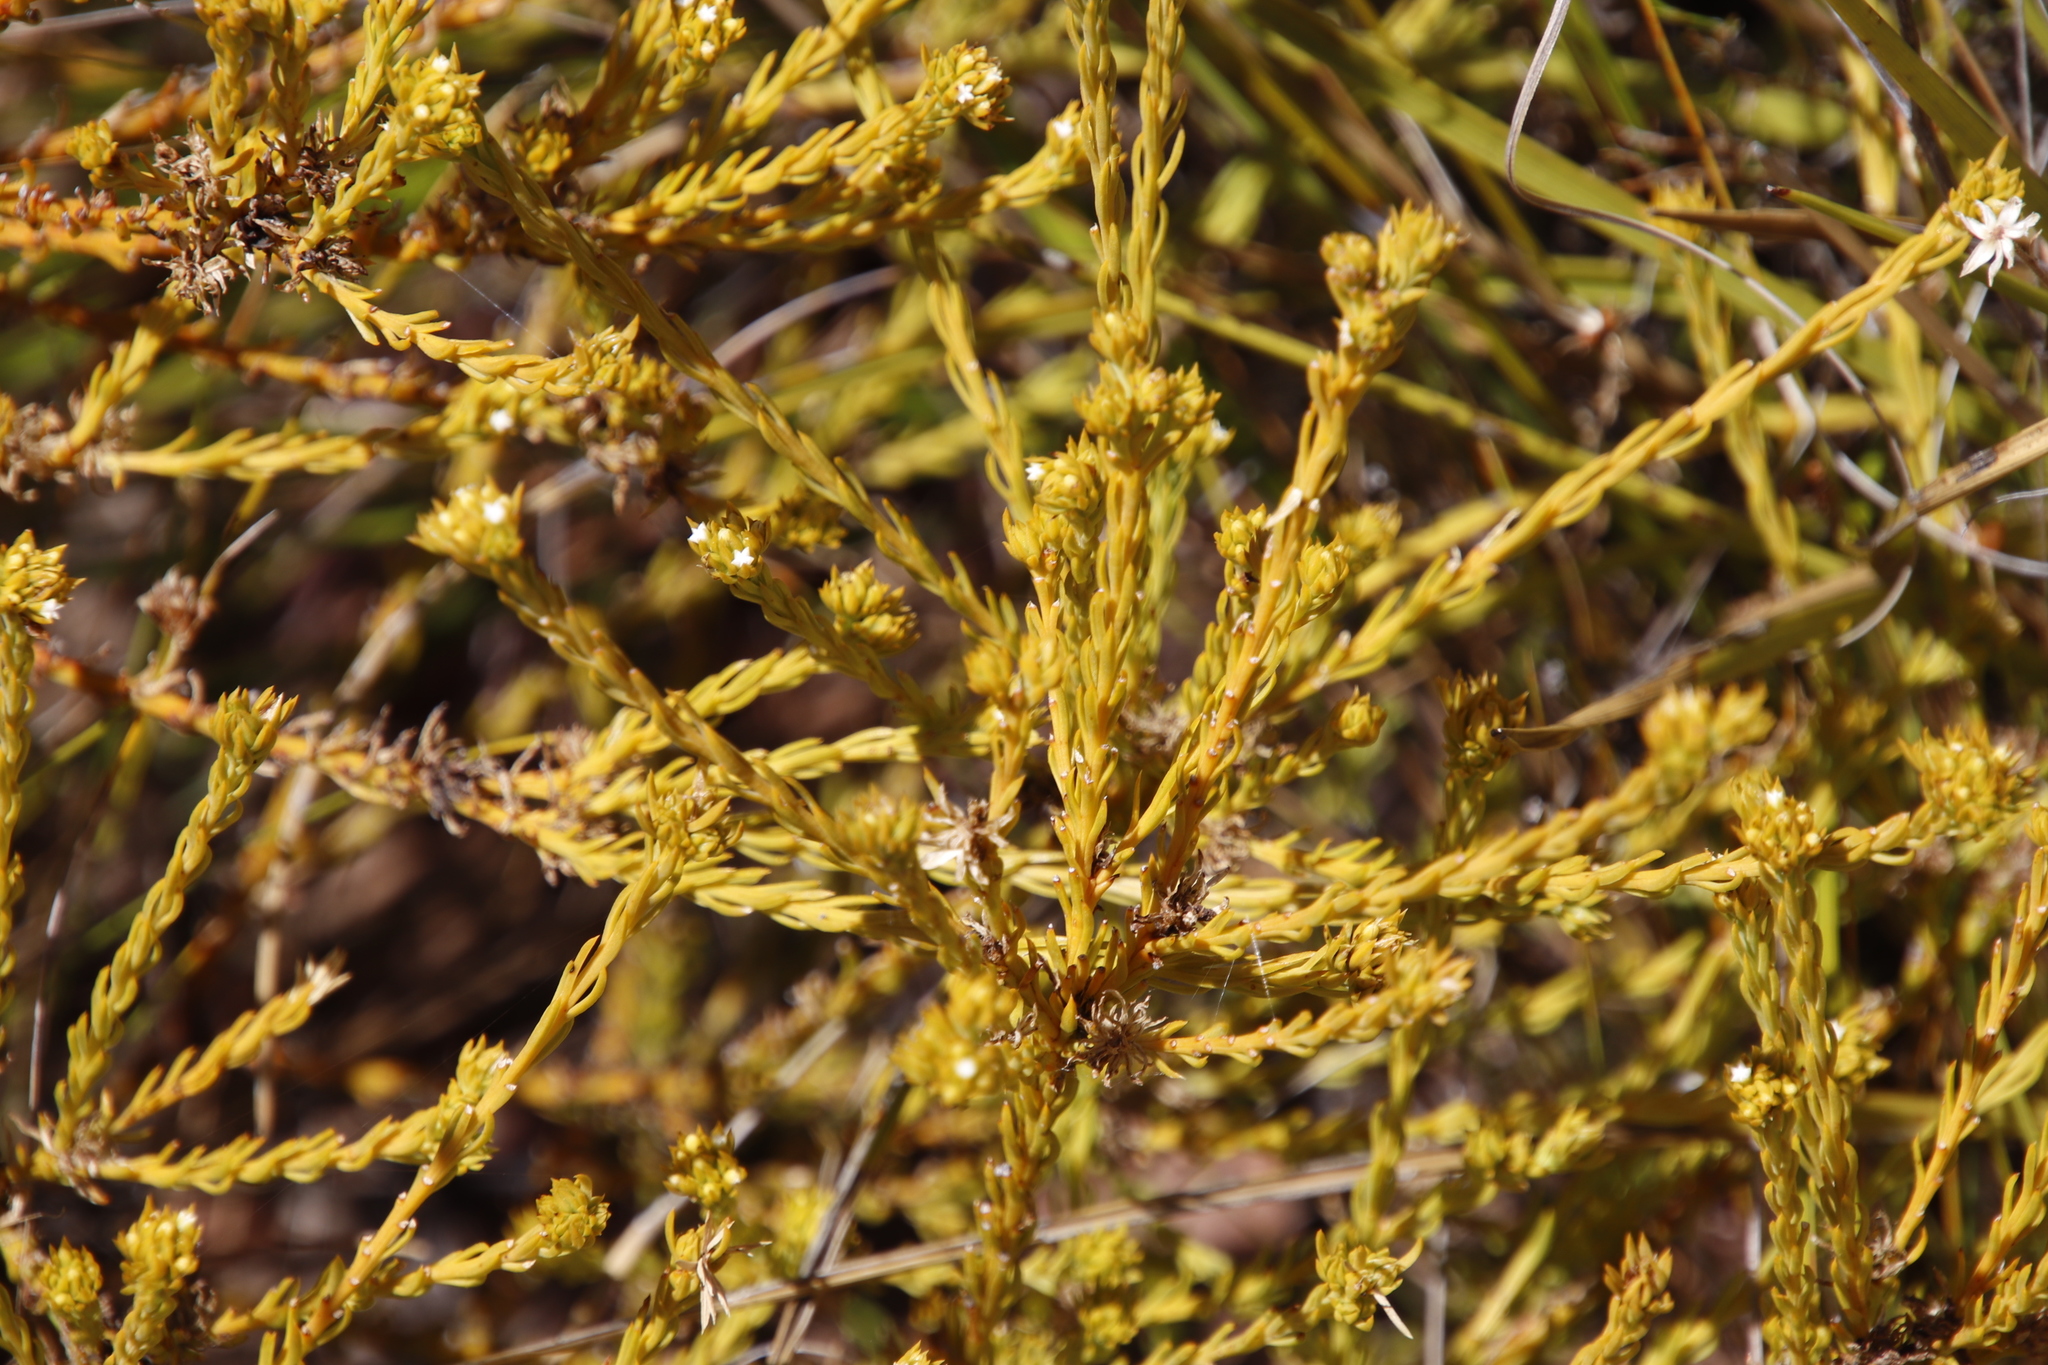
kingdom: Plantae
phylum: Tracheophyta
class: Magnoliopsida
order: Santalales
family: Thesiaceae
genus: Thesium
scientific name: Thesium carinatum
